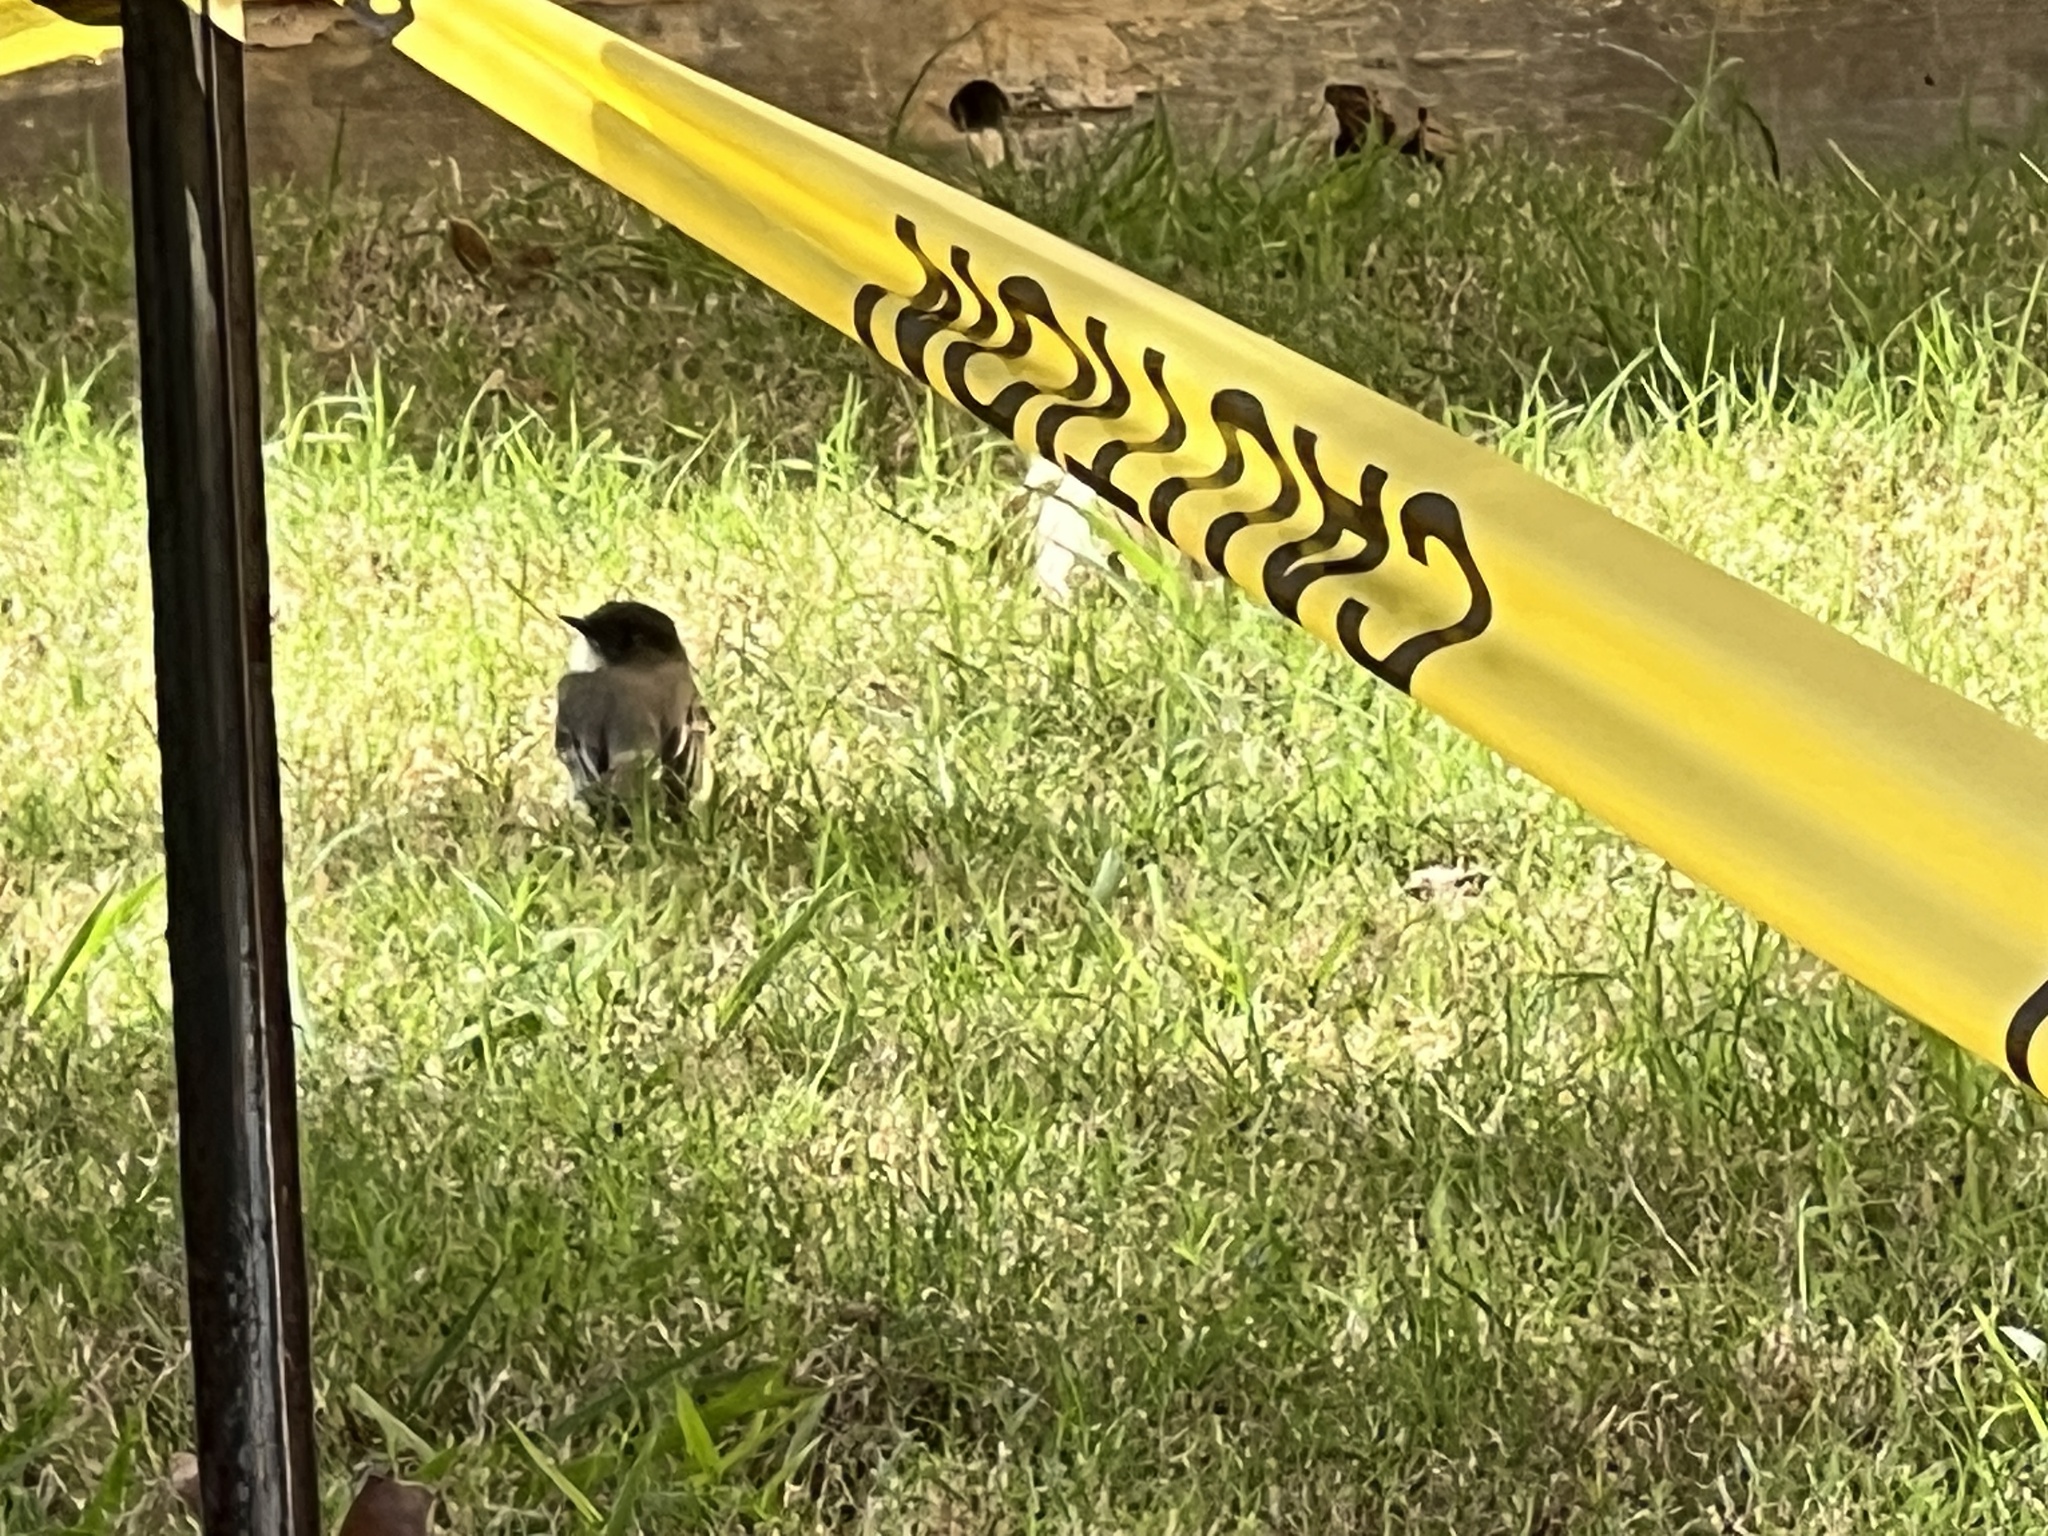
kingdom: Animalia
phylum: Chordata
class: Aves
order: Passeriformes
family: Tyrannidae
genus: Sayornis
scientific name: Sayornis phoebe
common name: Eastern phoebe
